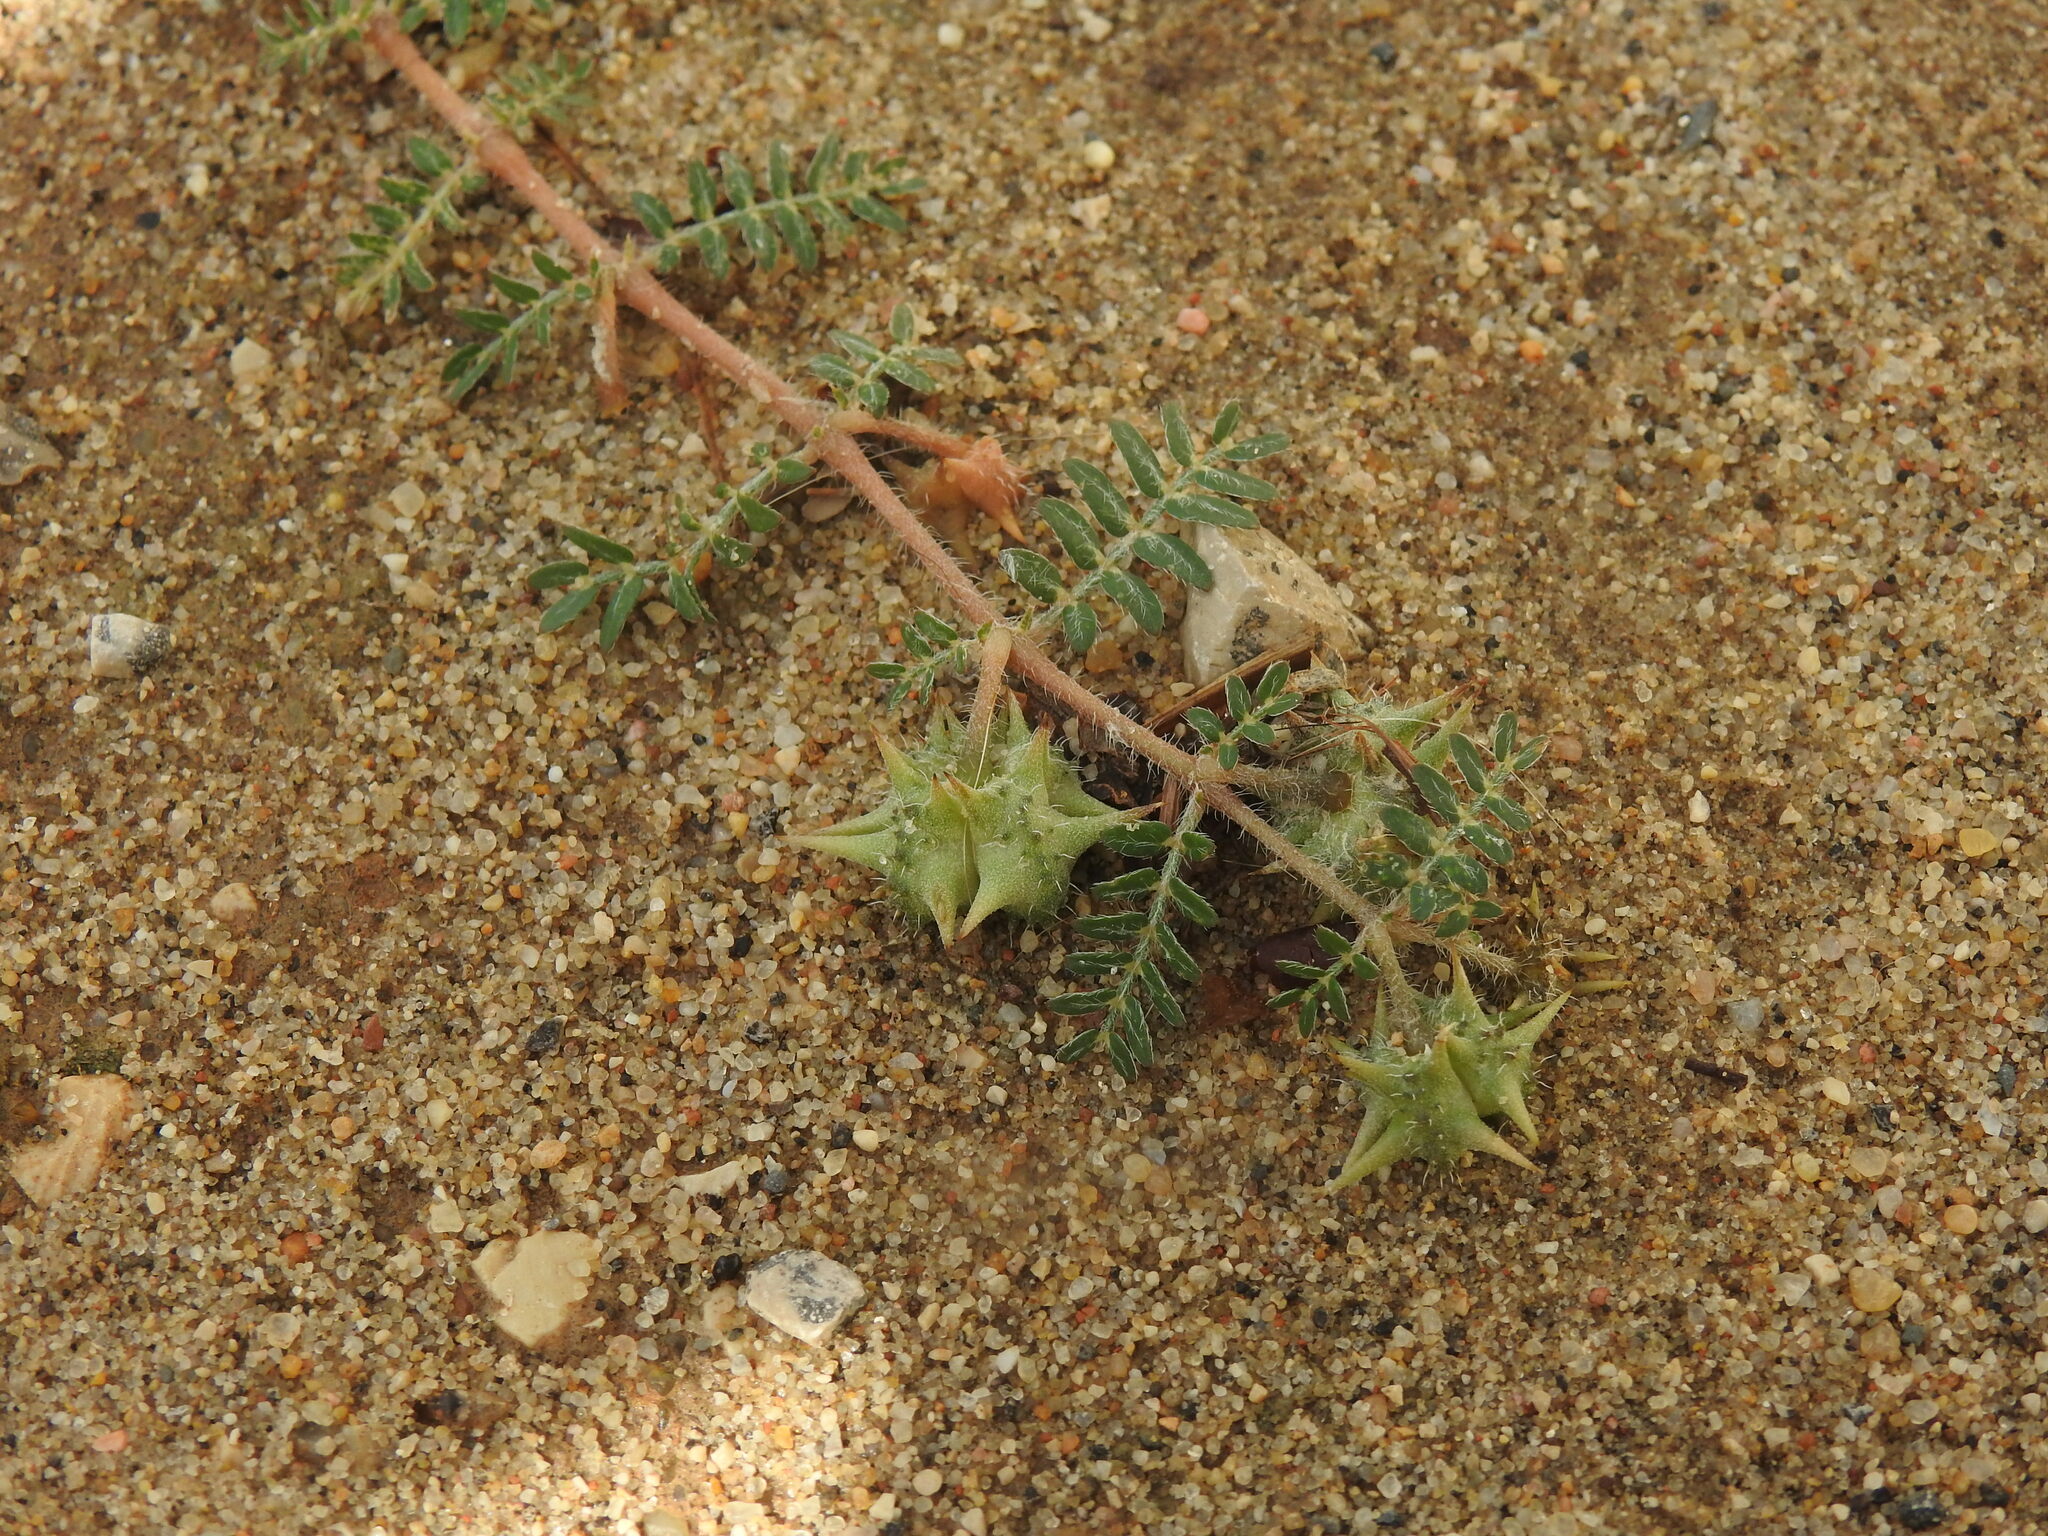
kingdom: Plantae
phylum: Tracheophyta
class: Magnoliopsida
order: Zygophyllales
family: Zygophyllaceae
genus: Tribulus
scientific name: Tribulus terrestris
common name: Puncturevine
